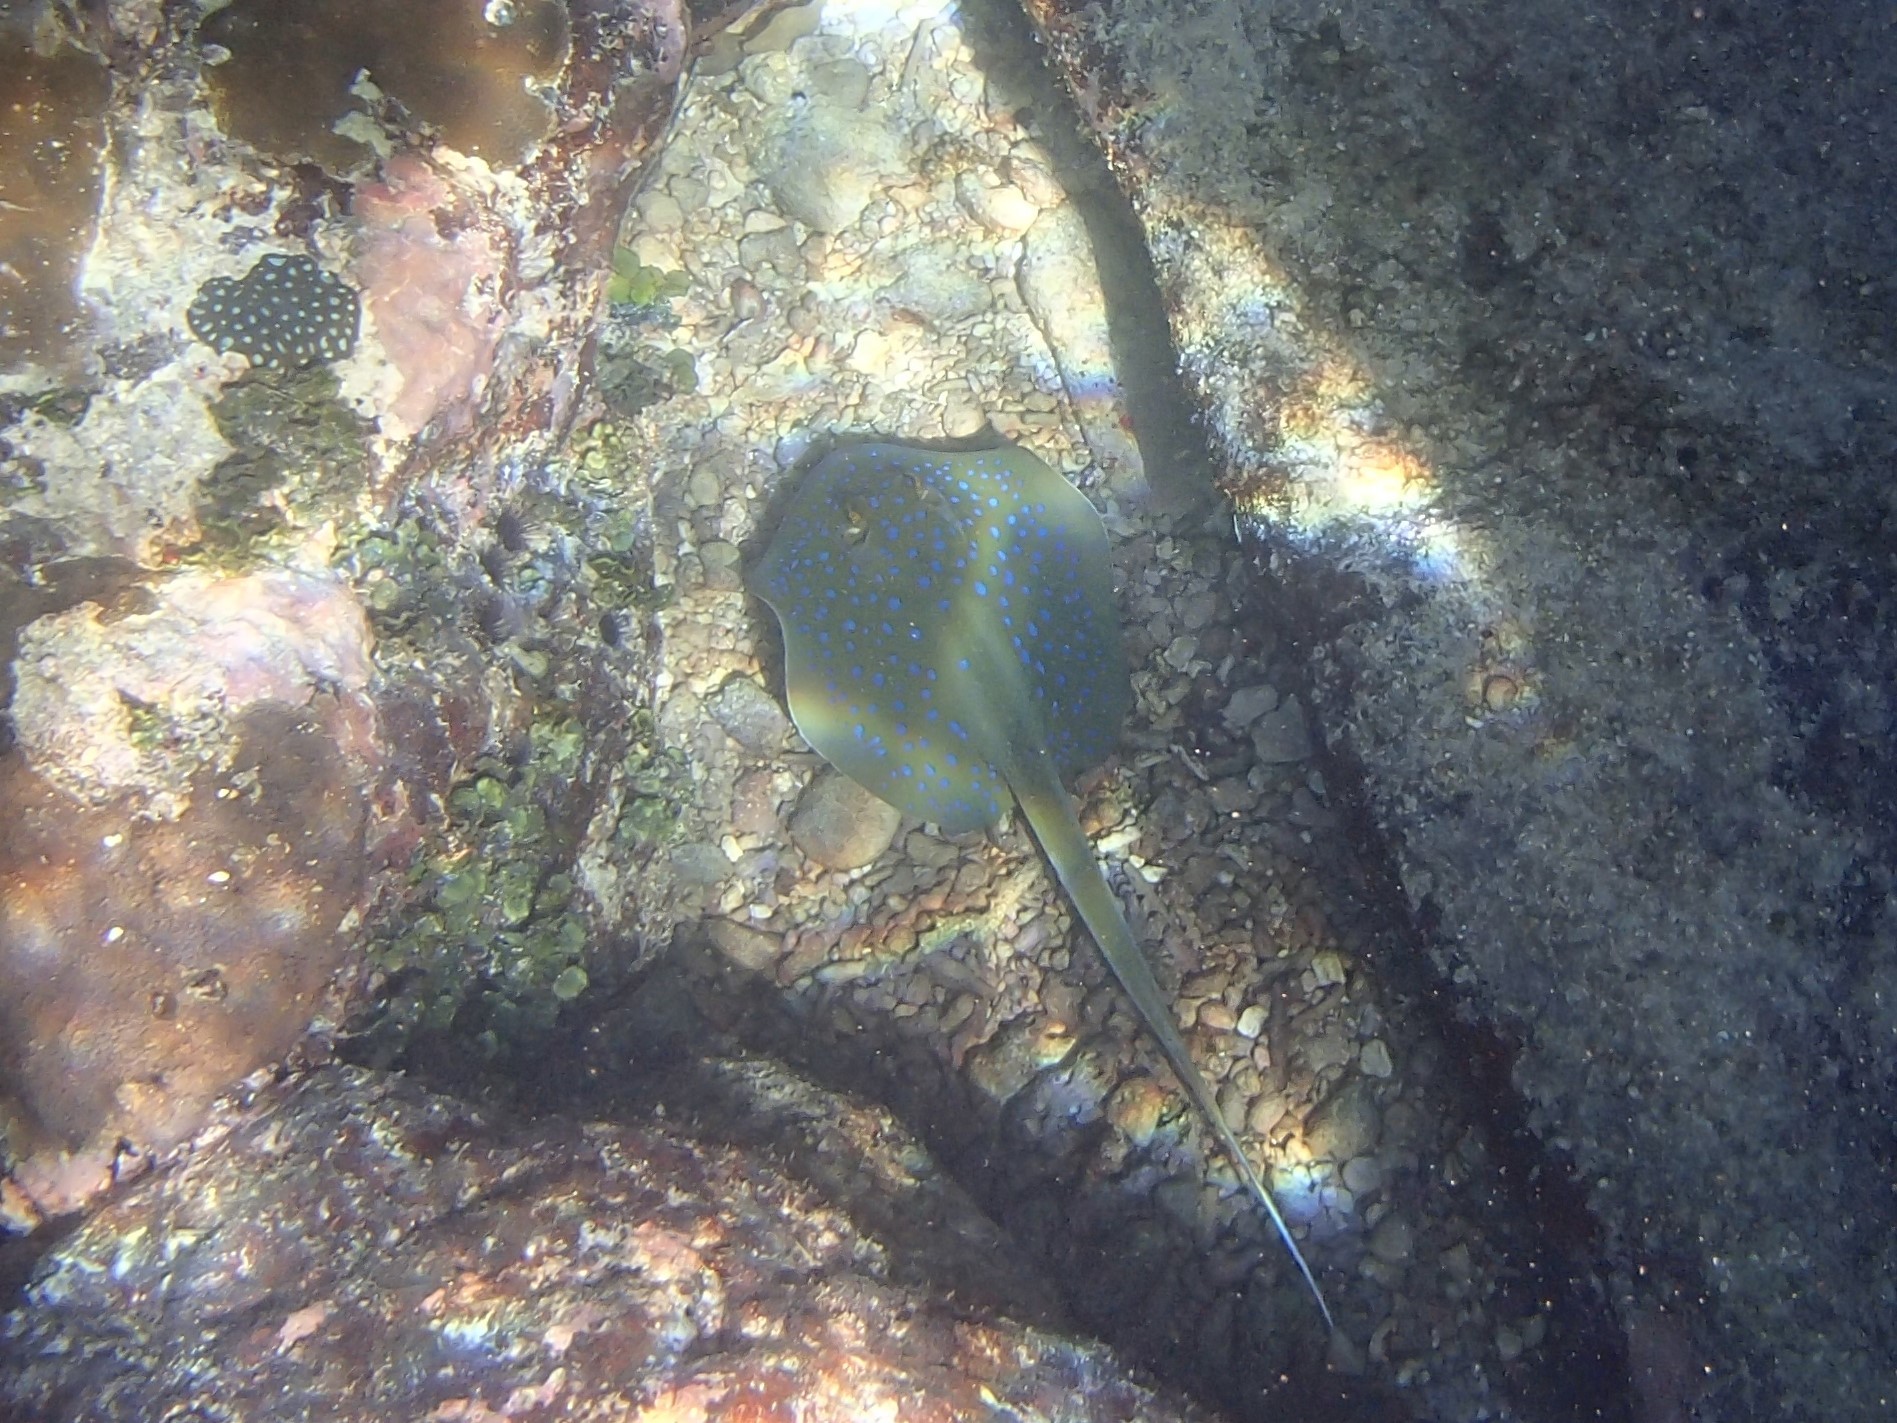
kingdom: Animalia
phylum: Chordata
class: Elasmobranchii
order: Myliobatiformes
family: Dasyatidae
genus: Taeniura
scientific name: Taeniura lessoni
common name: Oceania fantail ray
